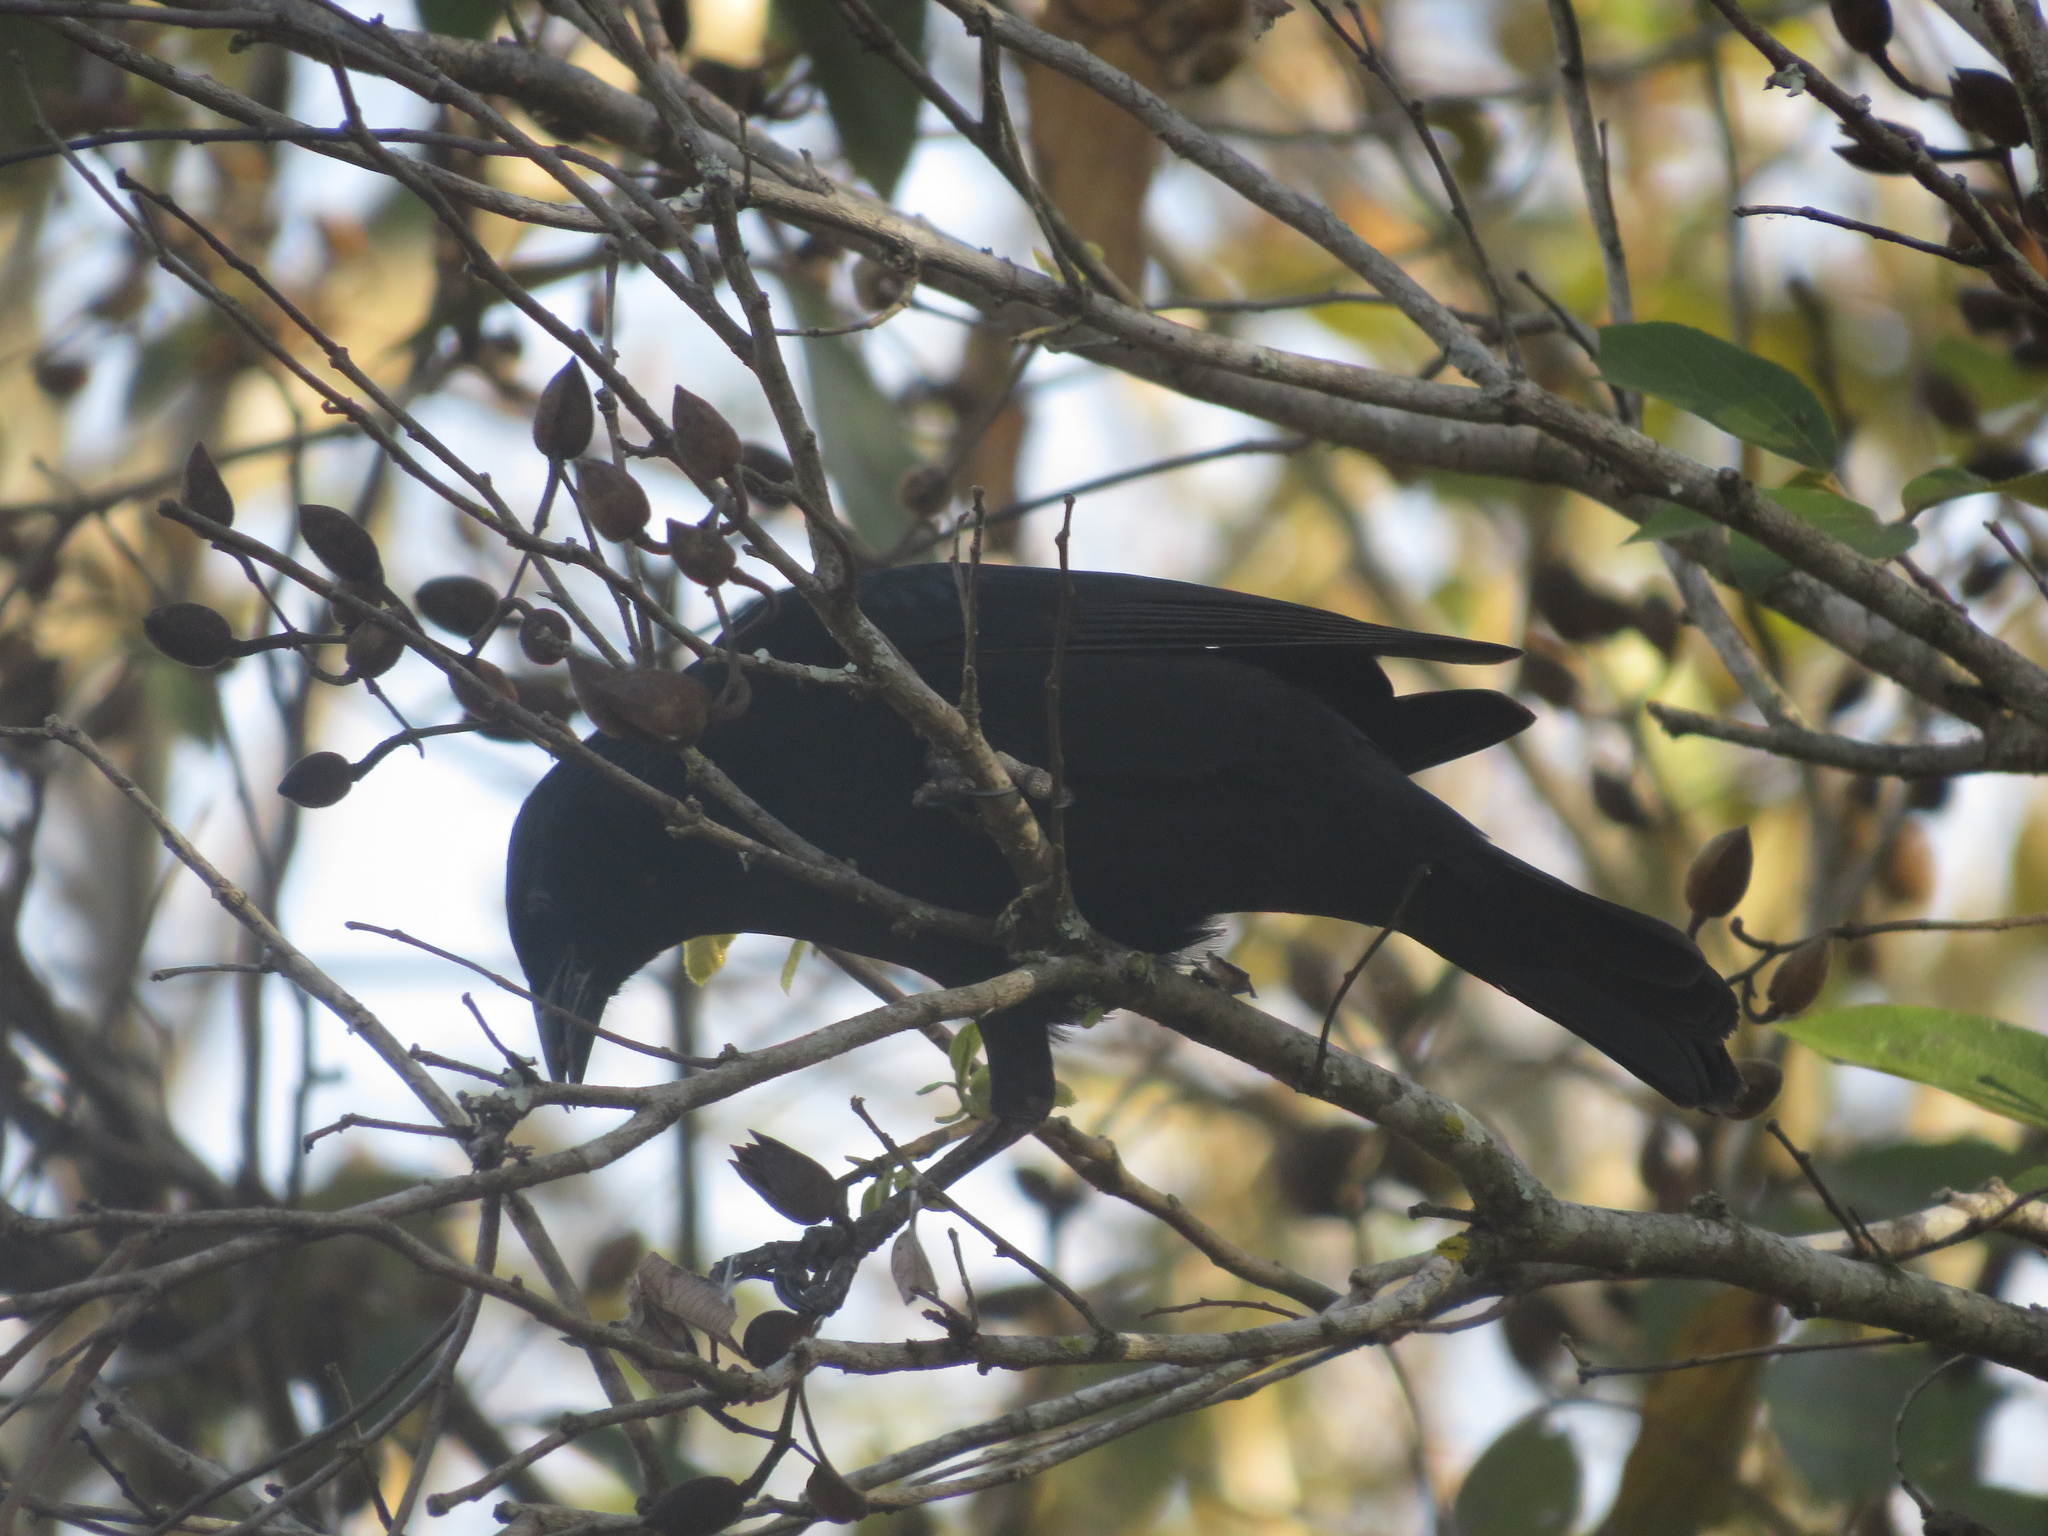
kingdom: Animalia
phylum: Chordata
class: Aves
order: Passeriformes
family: Icteridae
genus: Gnorimopsar
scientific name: Gnorimopsar chopi
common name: Chopi blackbird
